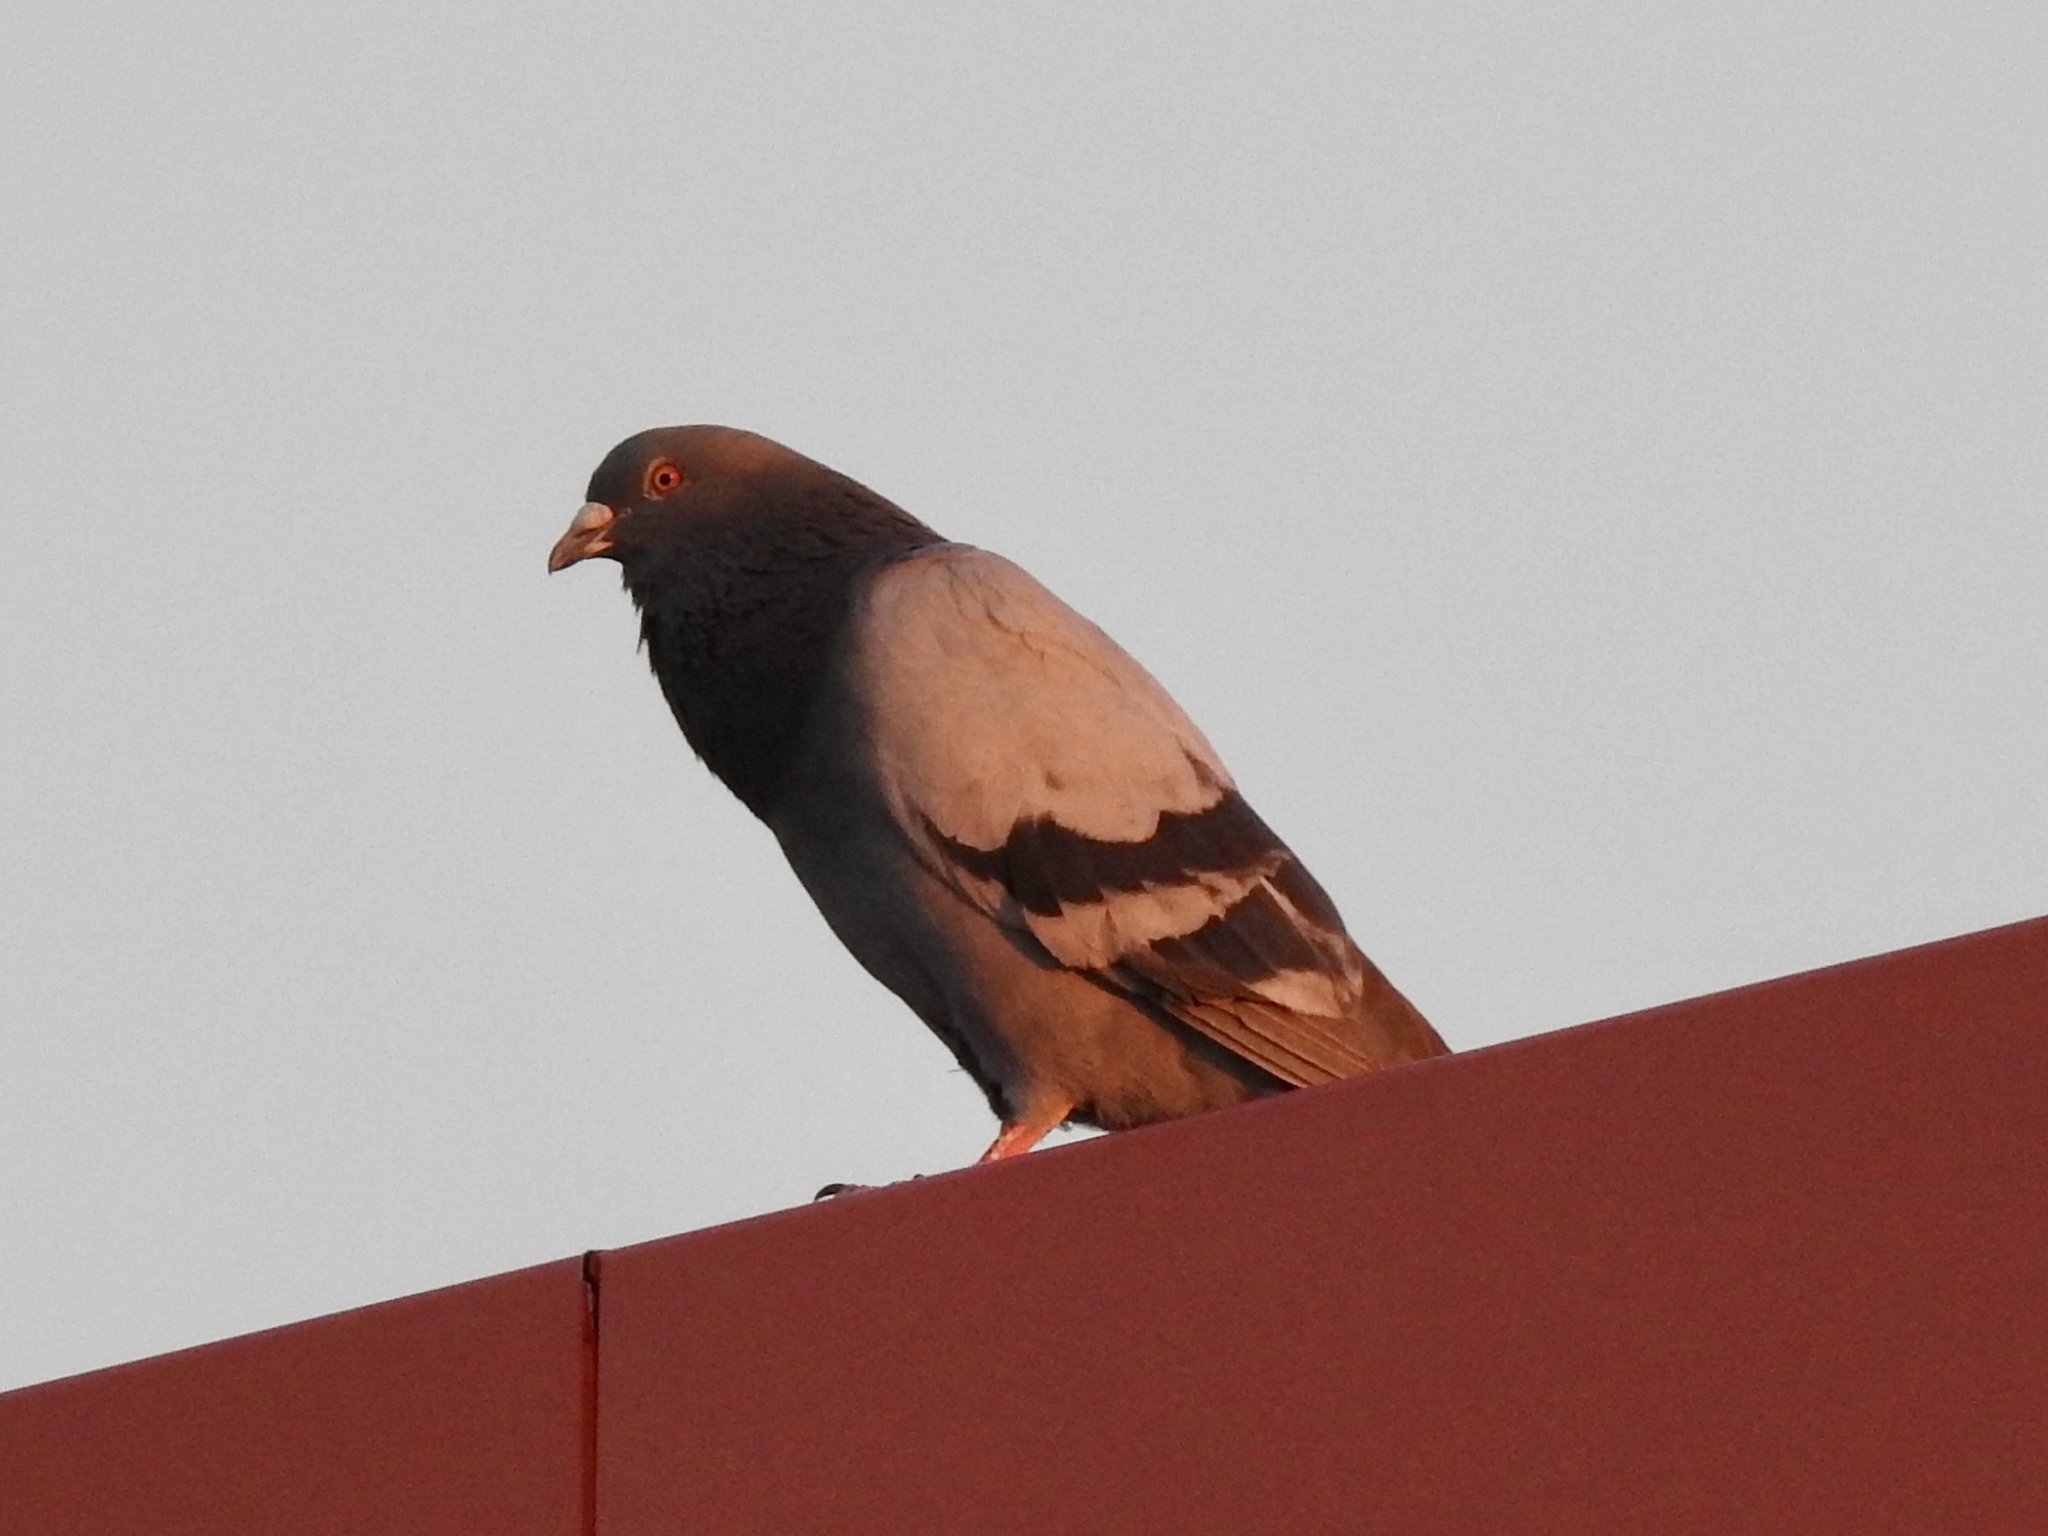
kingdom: Animalia
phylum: Chordata
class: Aves
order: Columbiformes
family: Columbidae
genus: Columba
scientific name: Columba livia
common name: Rock pigeon
